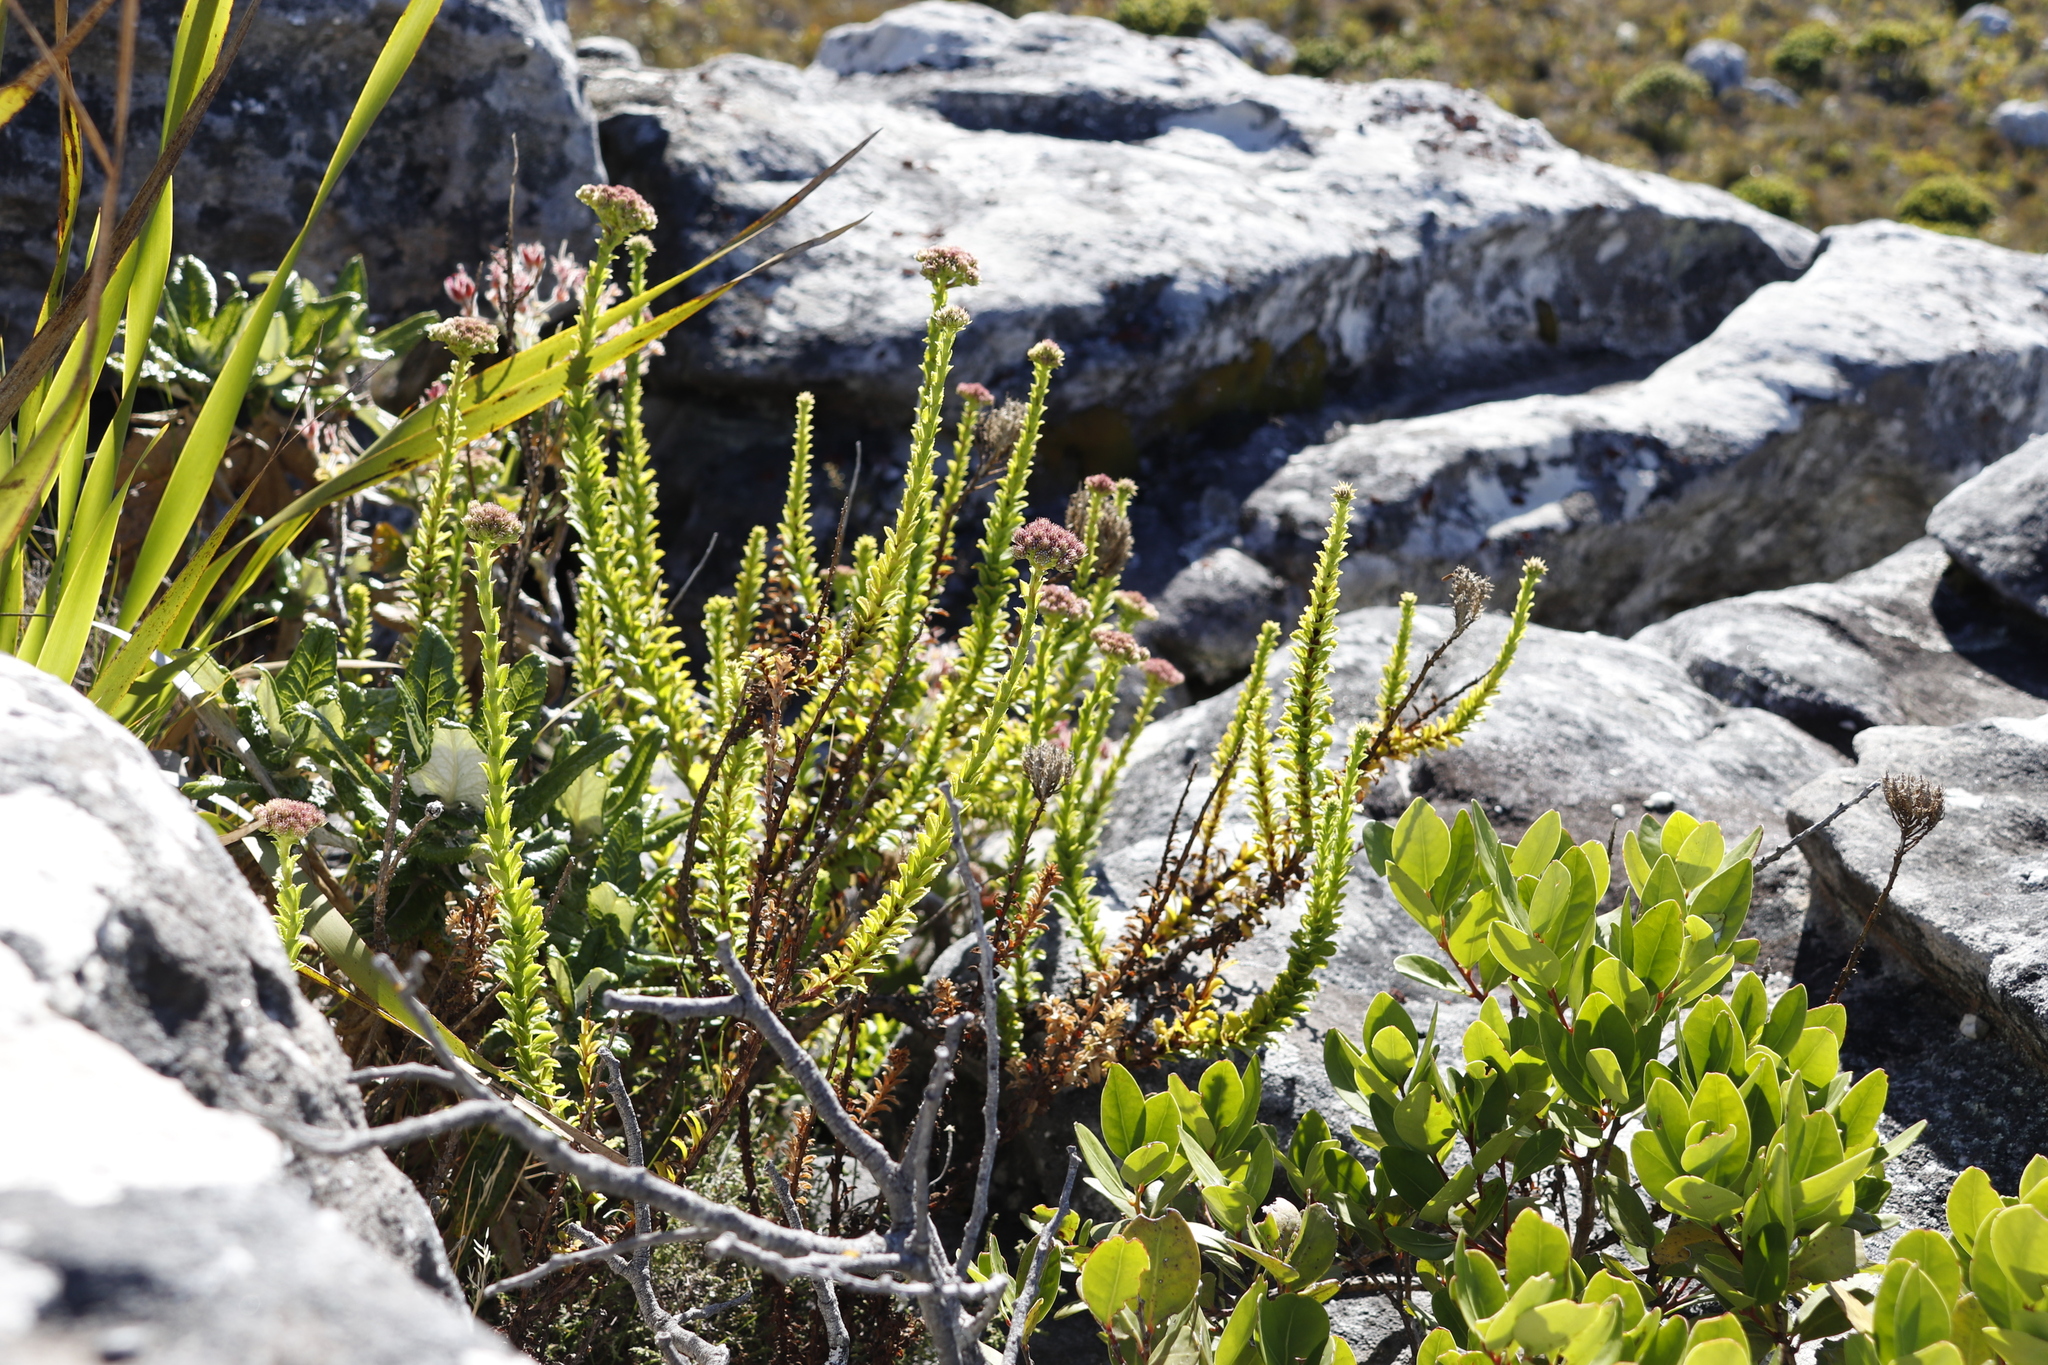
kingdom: Plantae
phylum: Tracheophyta
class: Magnoliopsida
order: Lamiales
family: Scrophulariaceae
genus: Pseudoselago
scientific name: Pseudoselago serrata
